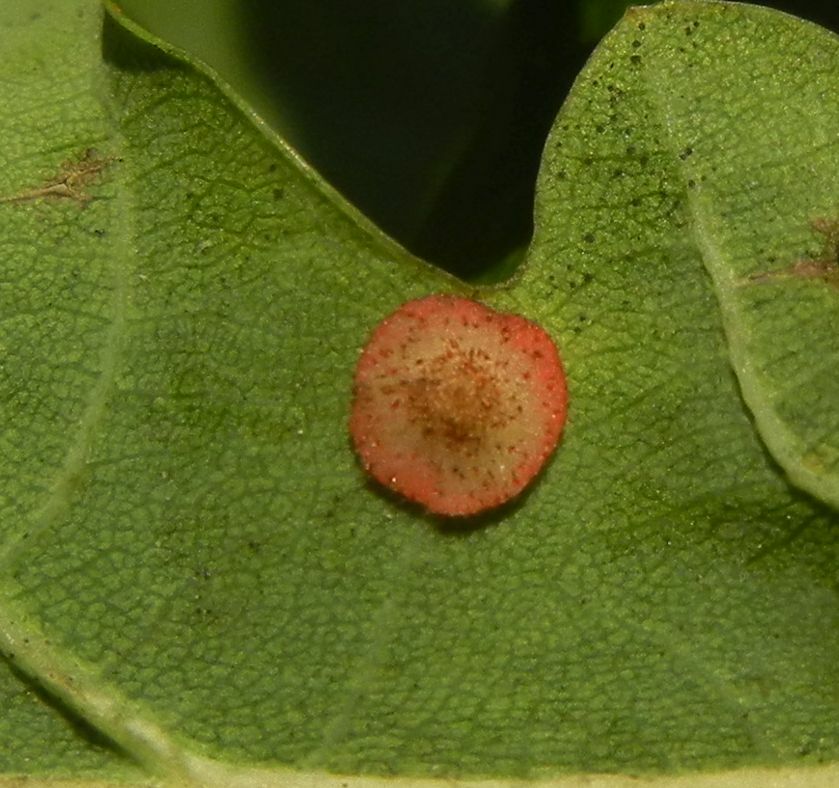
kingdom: Animalia
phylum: Arthropoda
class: Insecta
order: Hymenoptera
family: Cynipidae
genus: Neuroterus
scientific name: Neuroterus quercusbaccarum
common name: Common spangle gall
